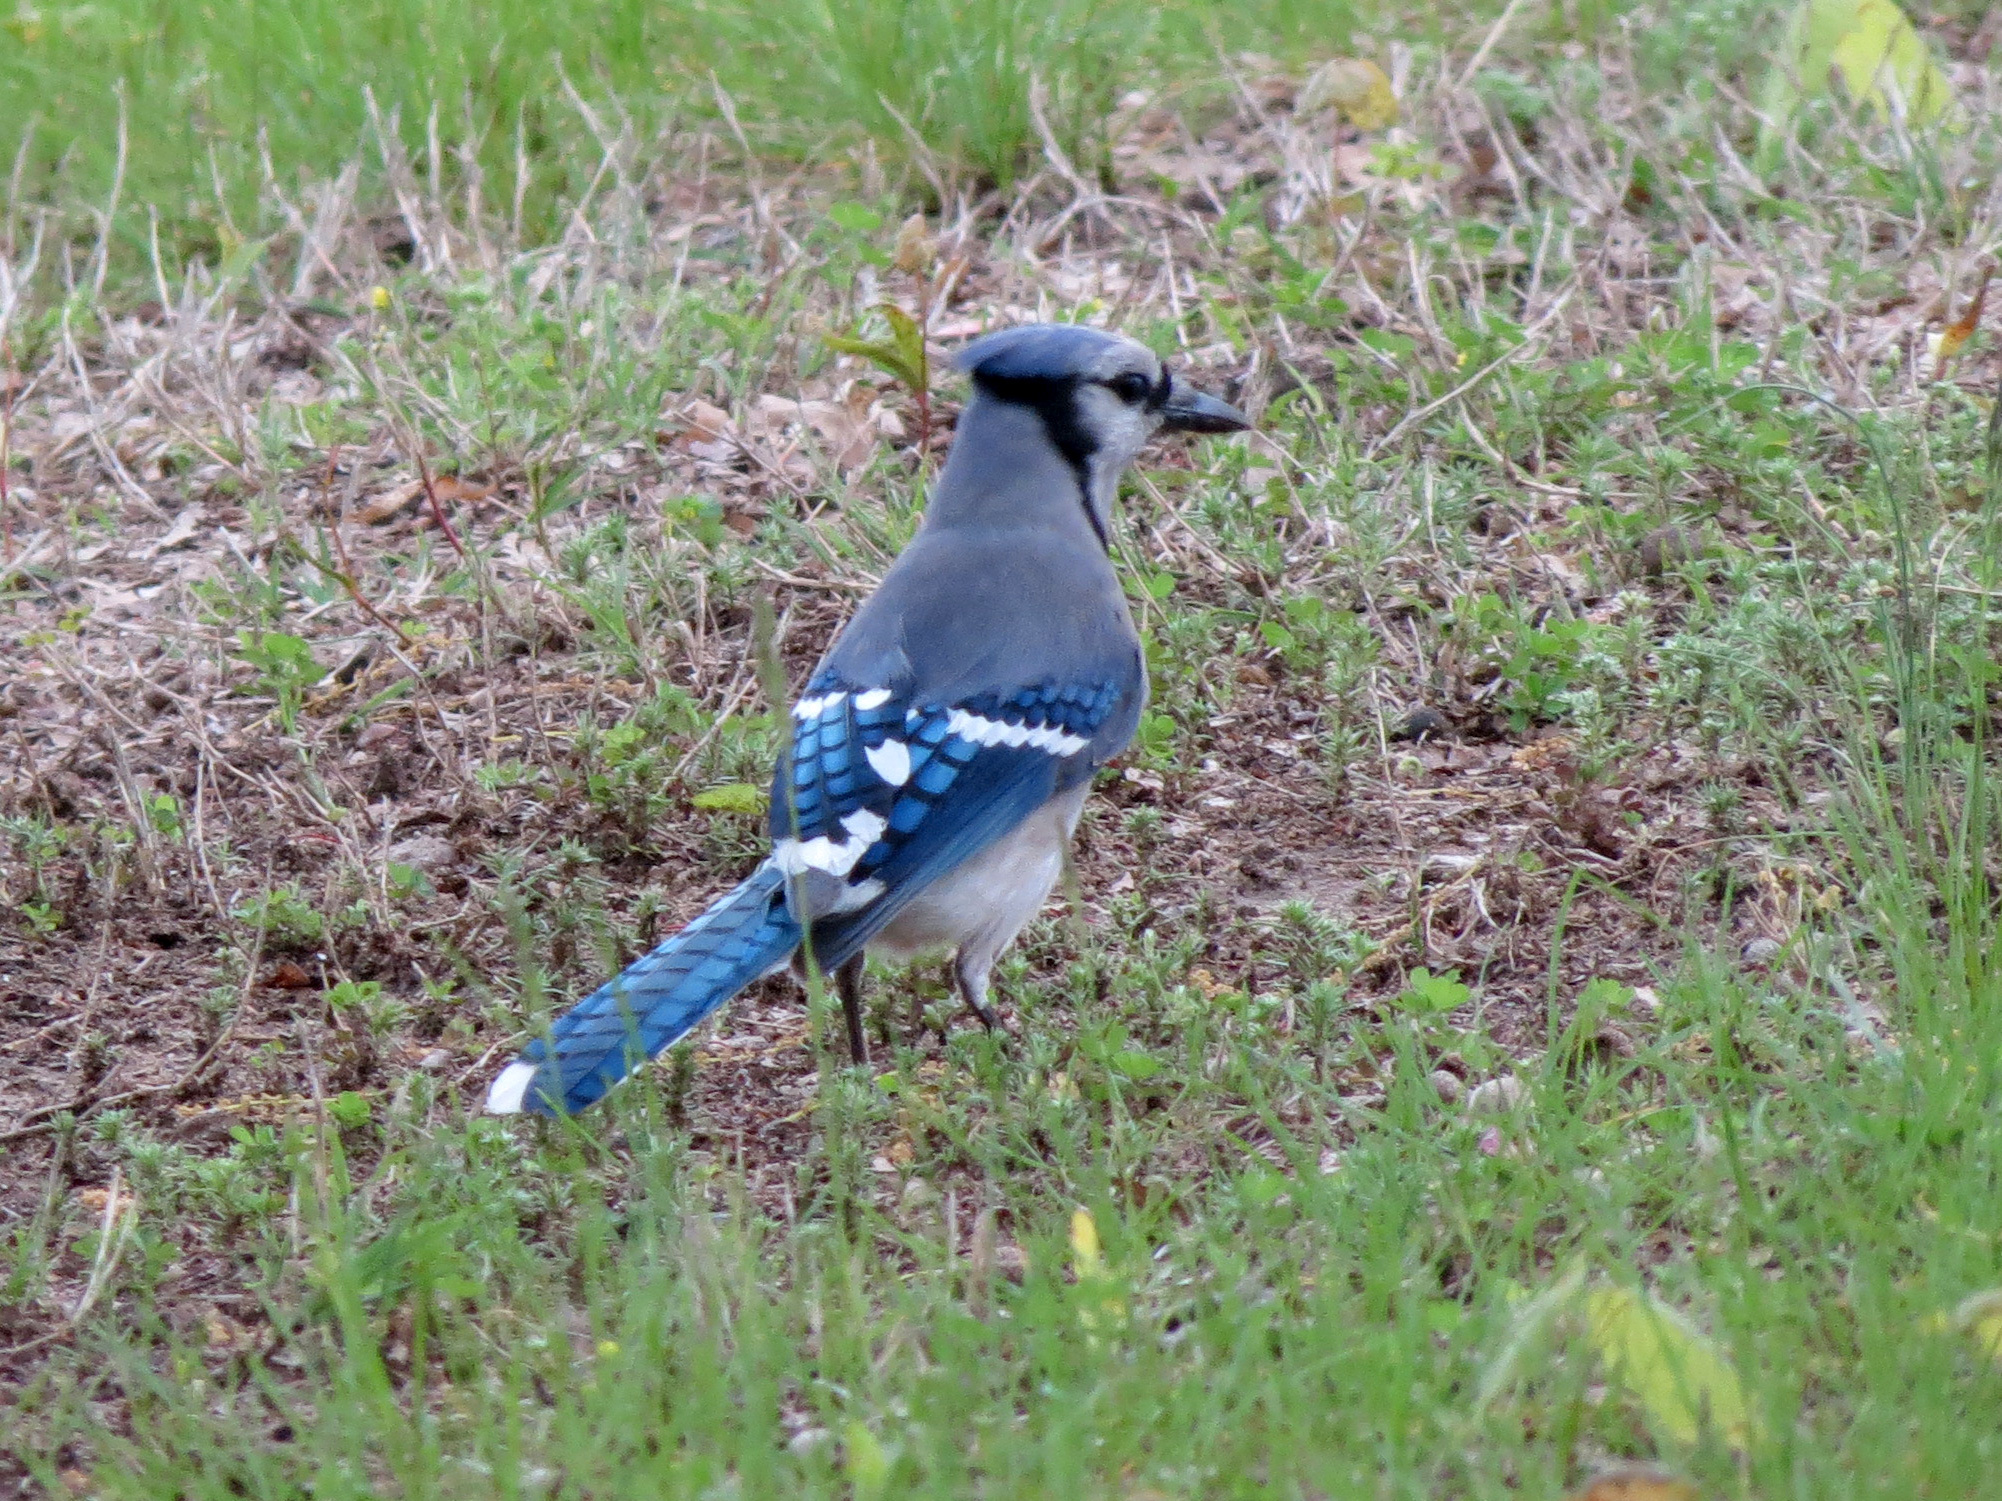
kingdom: Animalia
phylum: Chordata
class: Aves
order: Passeriformes
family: Corvidae
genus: Cyanocitta
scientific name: Cyanocitta cristata
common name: Blue jay
